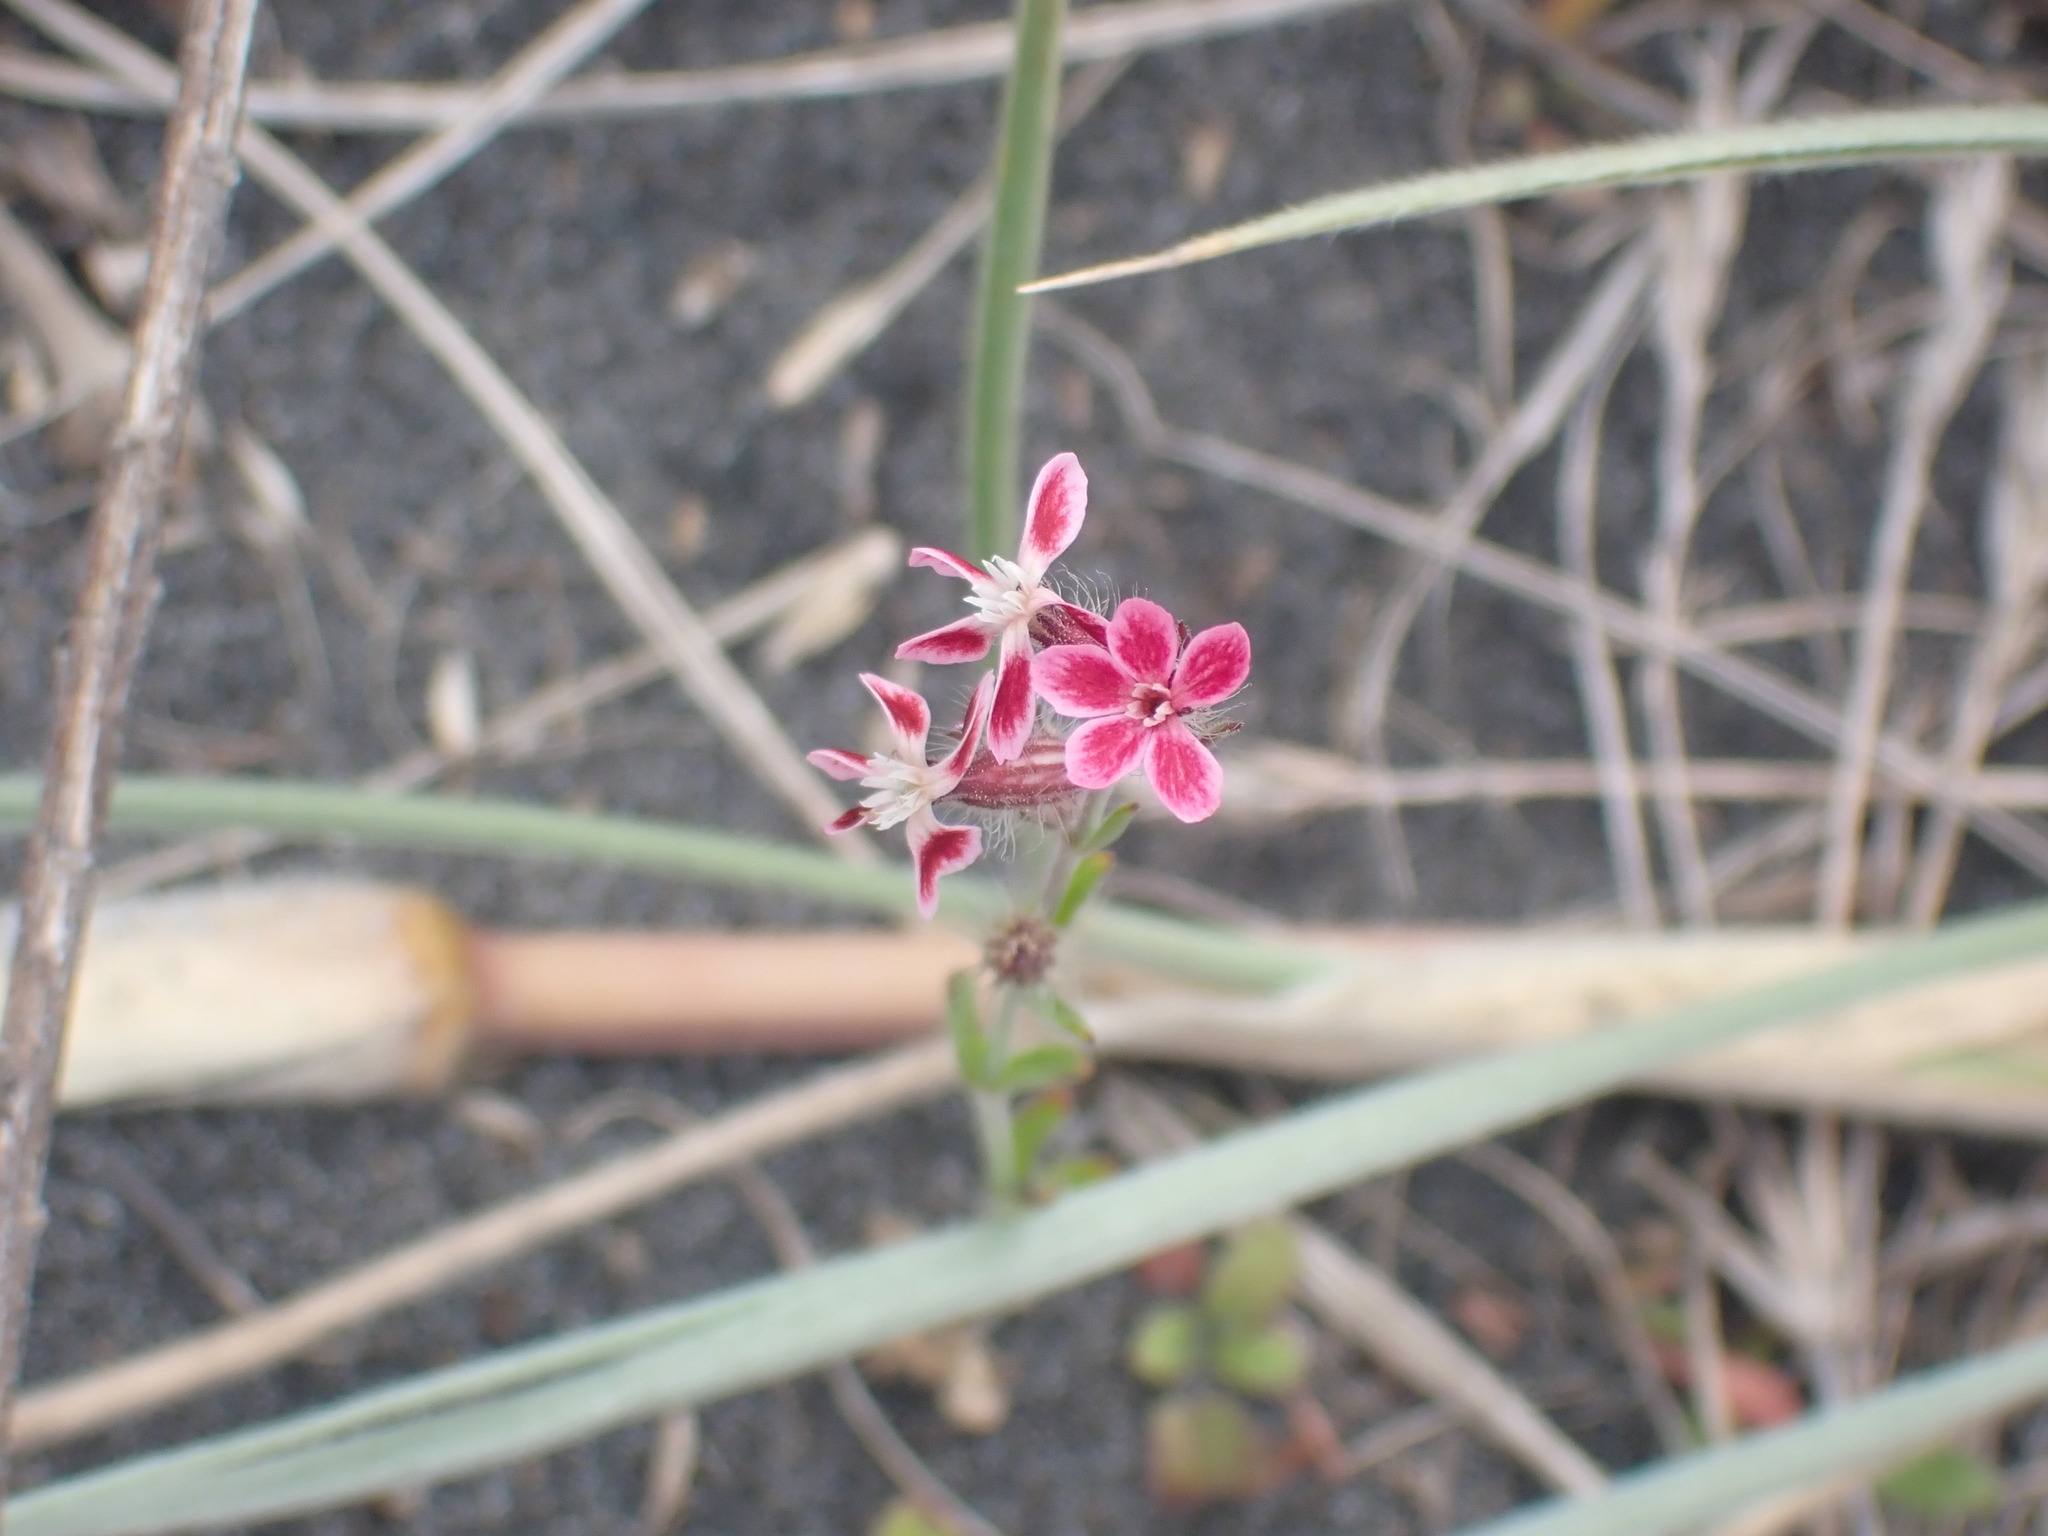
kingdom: Plantae
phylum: Tracheophyta
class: Magnoliopsida
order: Caryophyllales
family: Caryophyllaceae
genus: Silene
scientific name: Silene gallica
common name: Small-flowered catchfly
